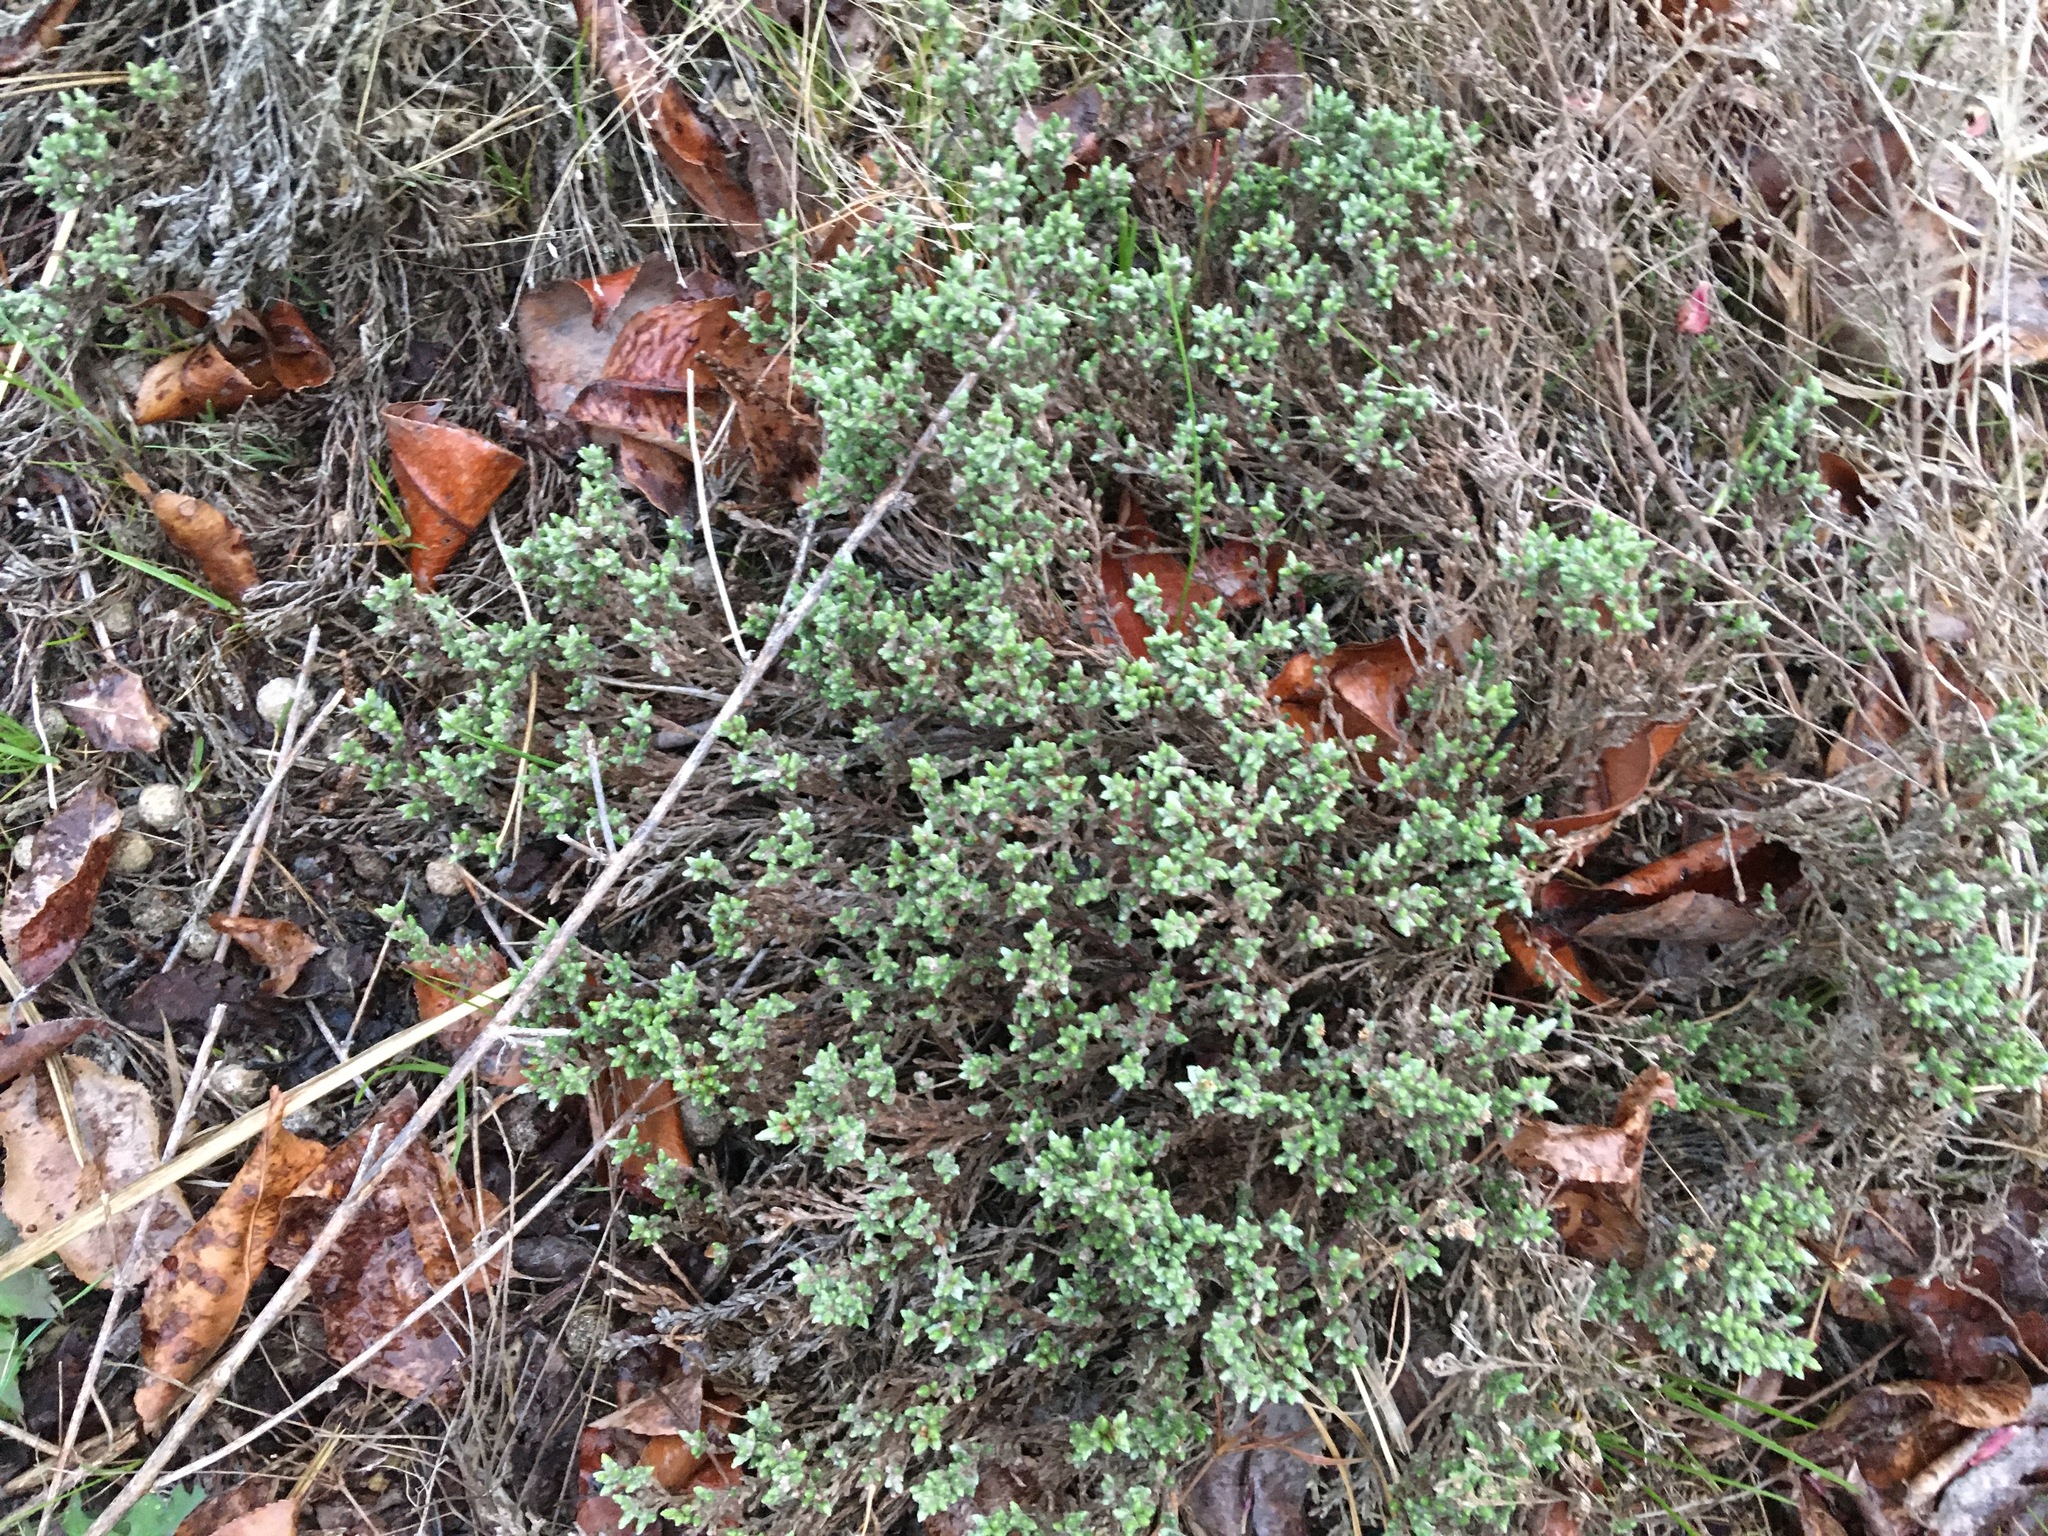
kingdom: Plantae
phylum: Tracheophyta
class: Magnoliopsida
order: Malvales
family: Cistaceae
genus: Hudsonia
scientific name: Hudsonia tomentosa
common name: Beach-heath
